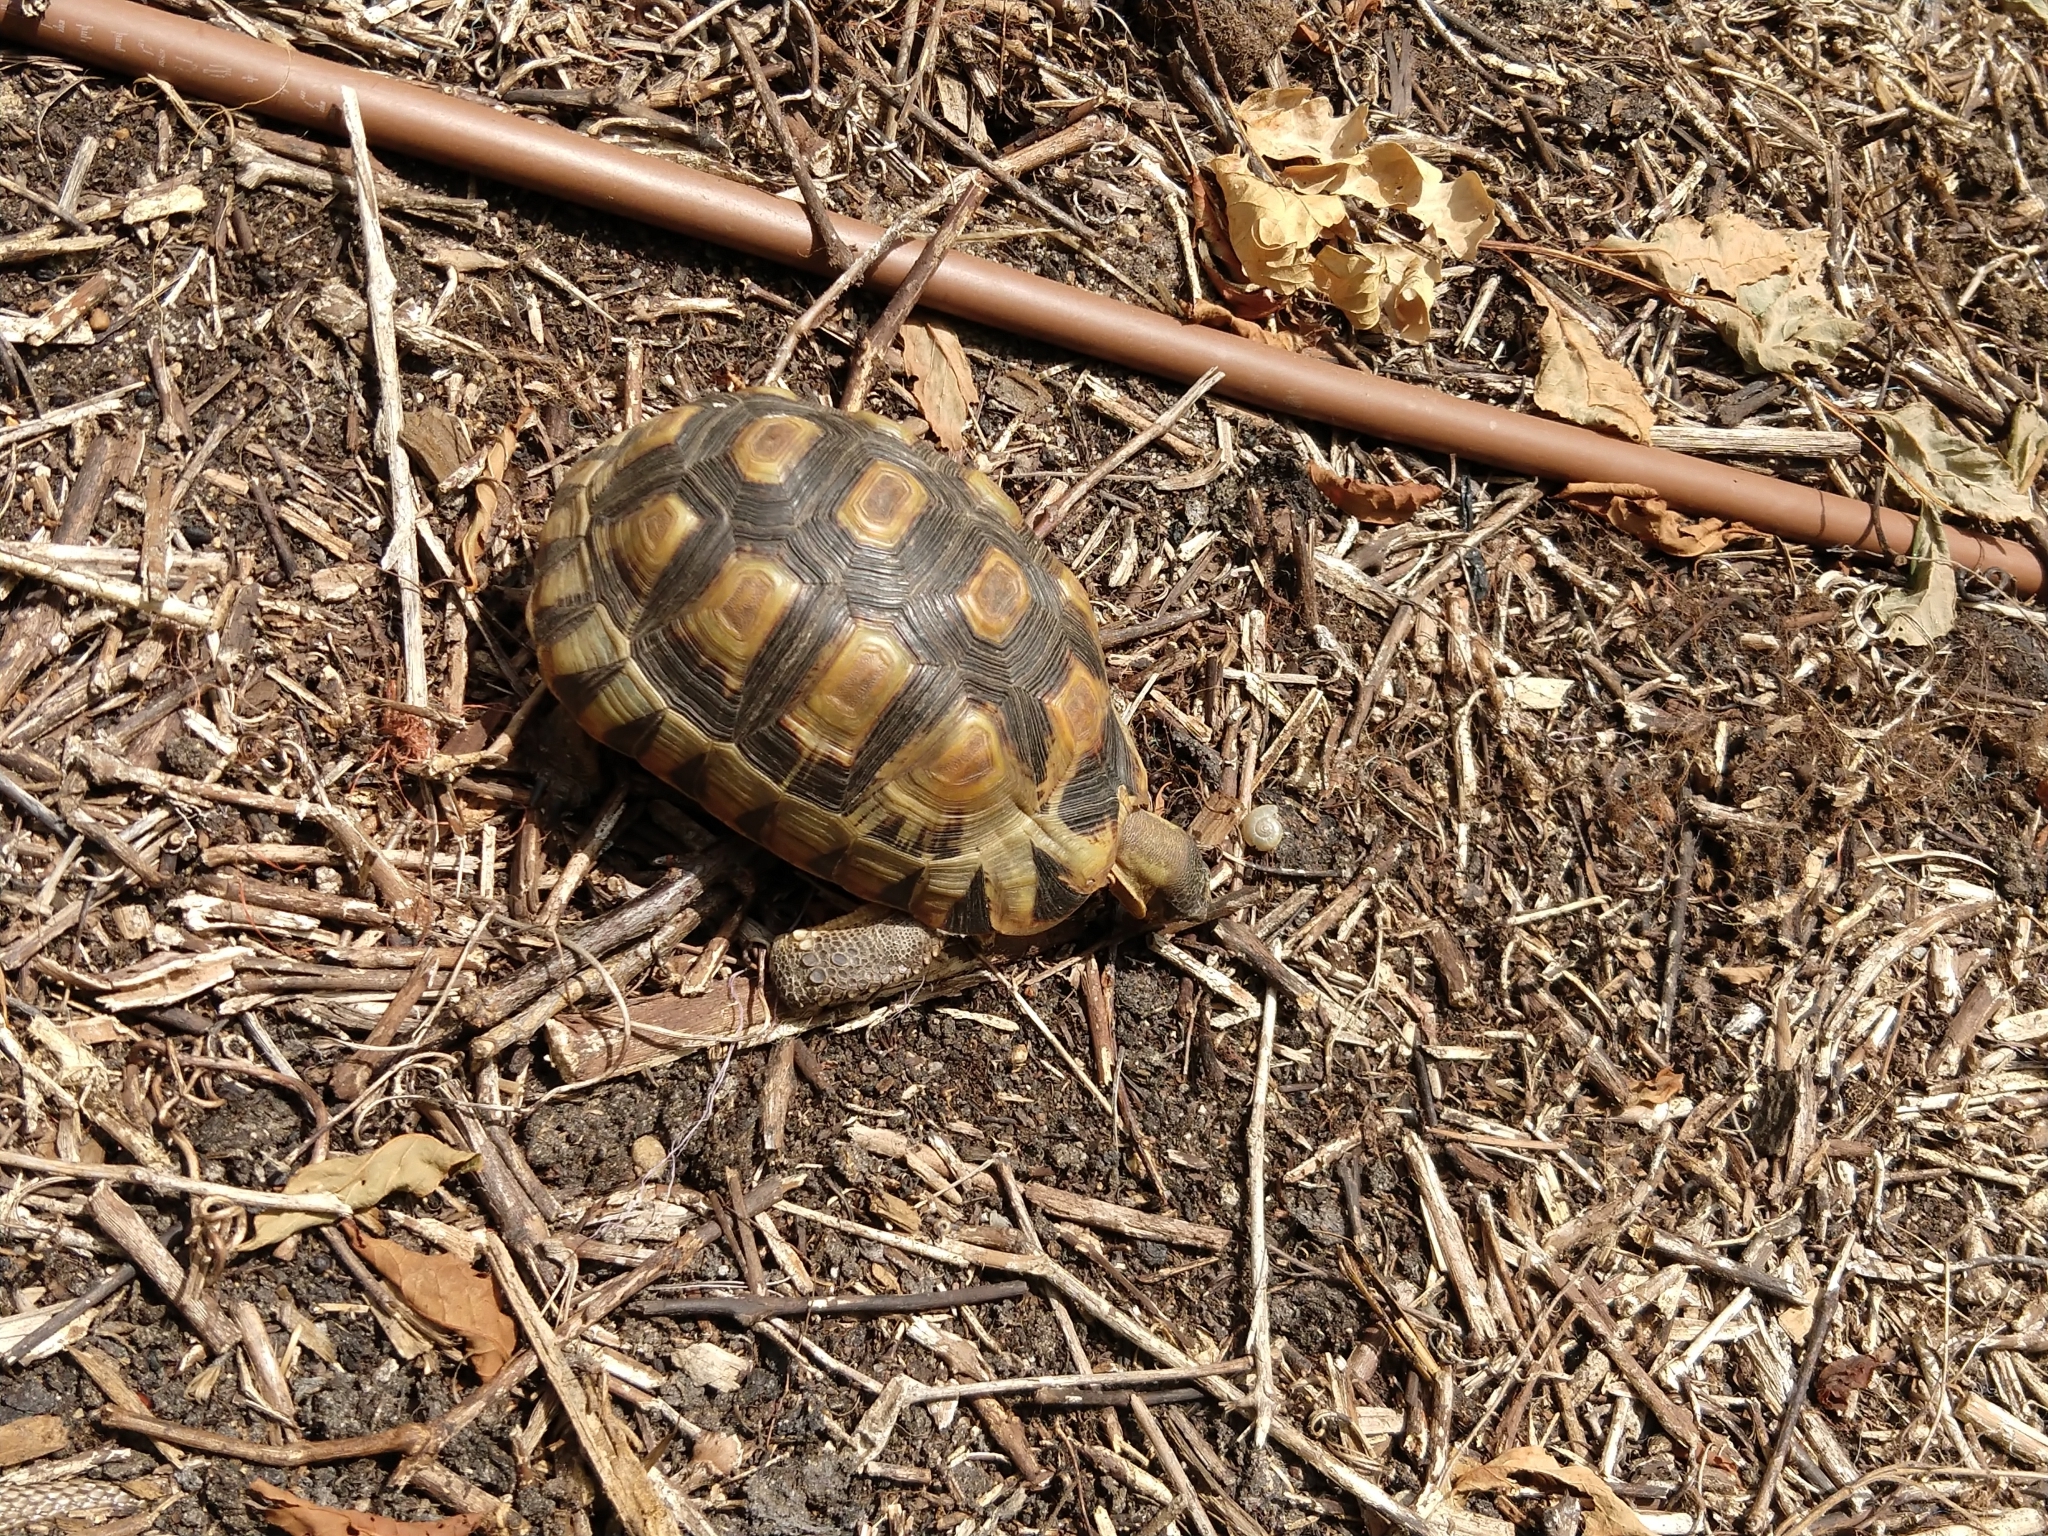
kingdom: Animalia
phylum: Chordata
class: Testudines
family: Testudinidae
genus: Chersina
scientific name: Chersina angulata
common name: South african bowsprit tortoise
